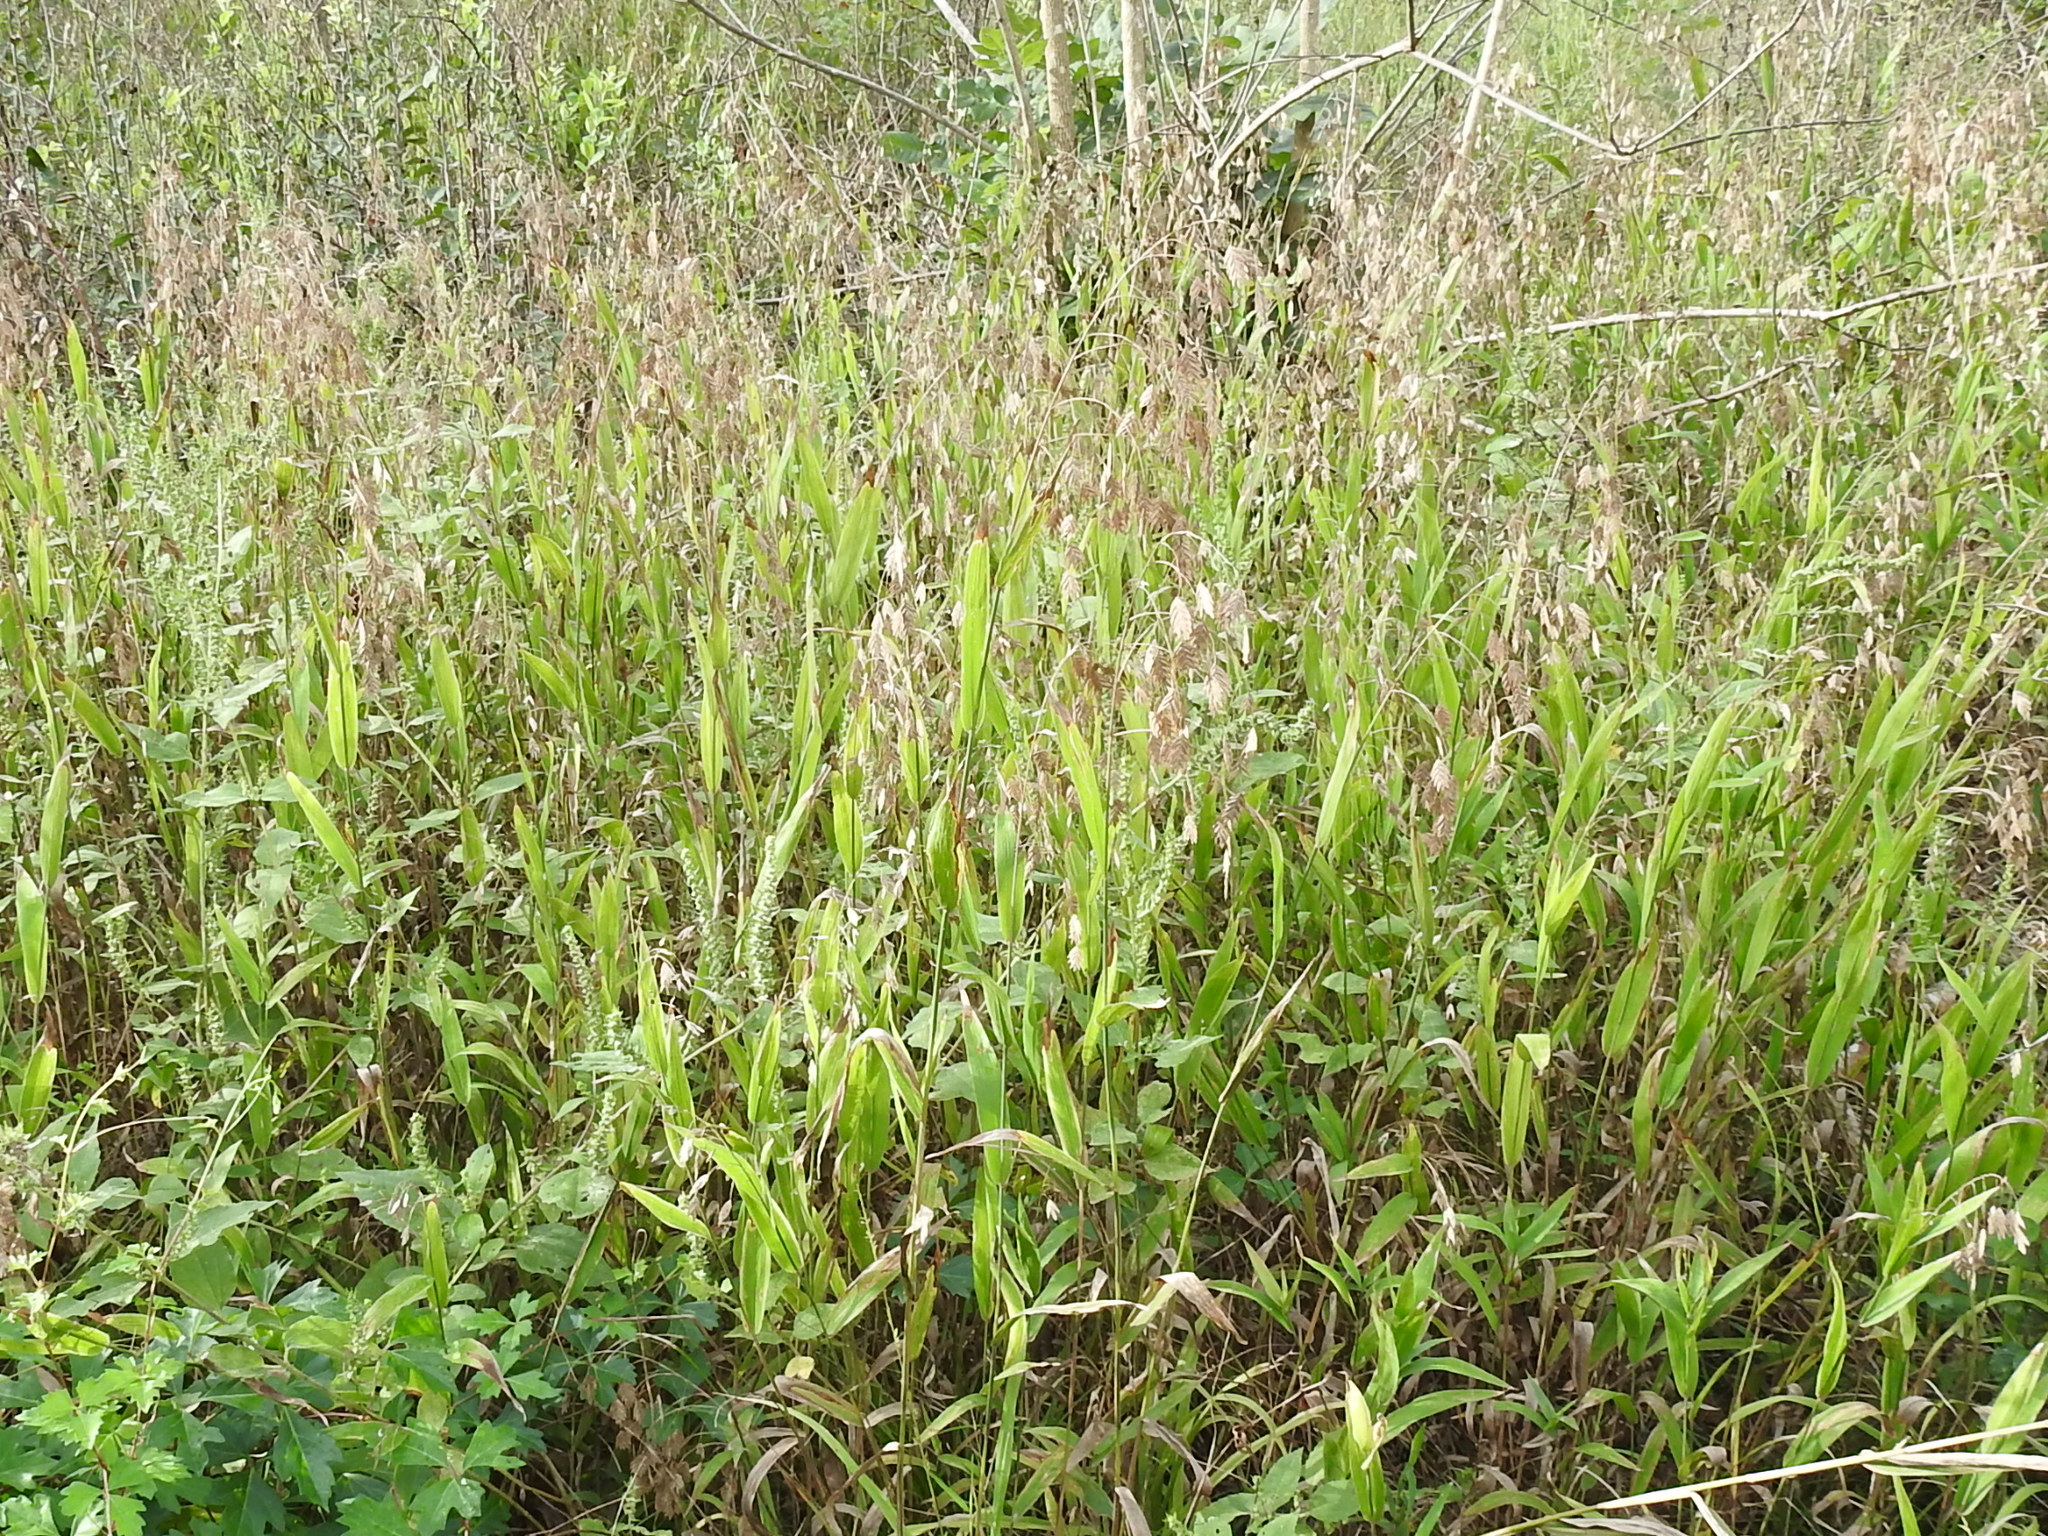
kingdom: Plantae
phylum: Tracheophyta
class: Liliopsida
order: Poales
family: Poaceae
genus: Chasmanthium
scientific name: Chasmanthium latifolium
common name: Broad-leaved chasmanthium
